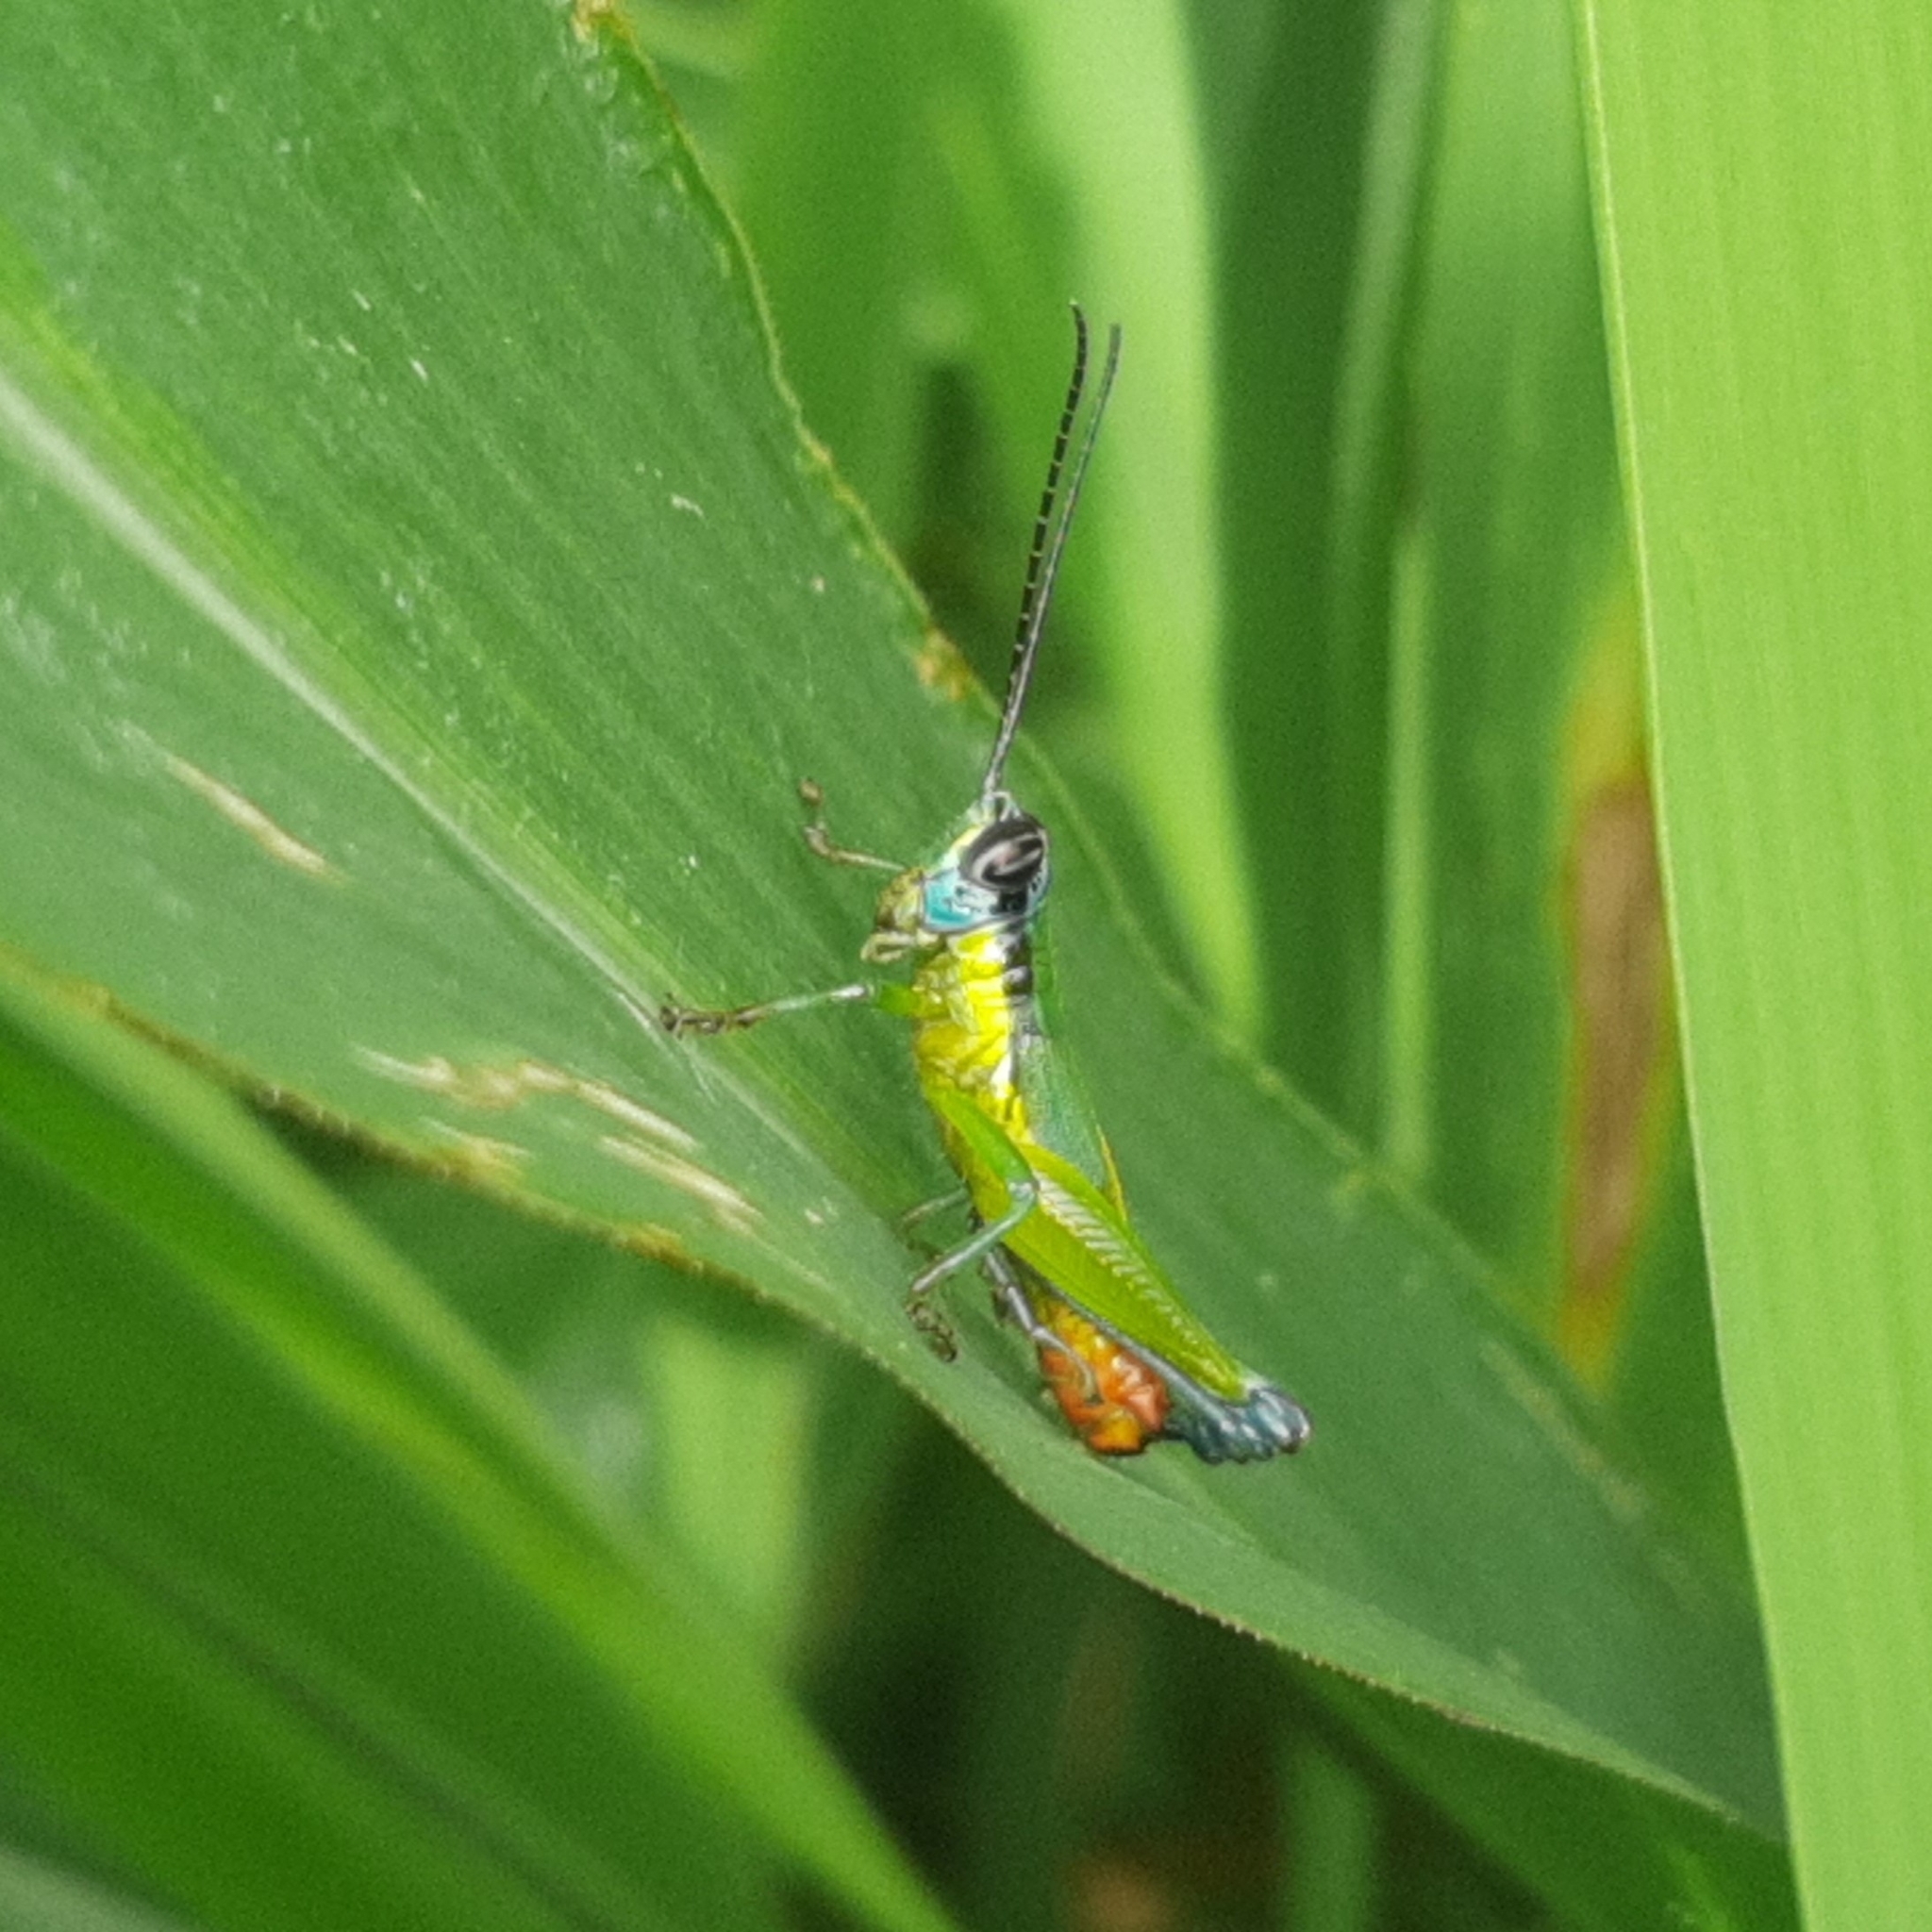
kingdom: Animalia
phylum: Arthropoda
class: Insecta
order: Orthoptera
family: Acrididae
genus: Ampelophilus
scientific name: Ampelophilus truncatus
